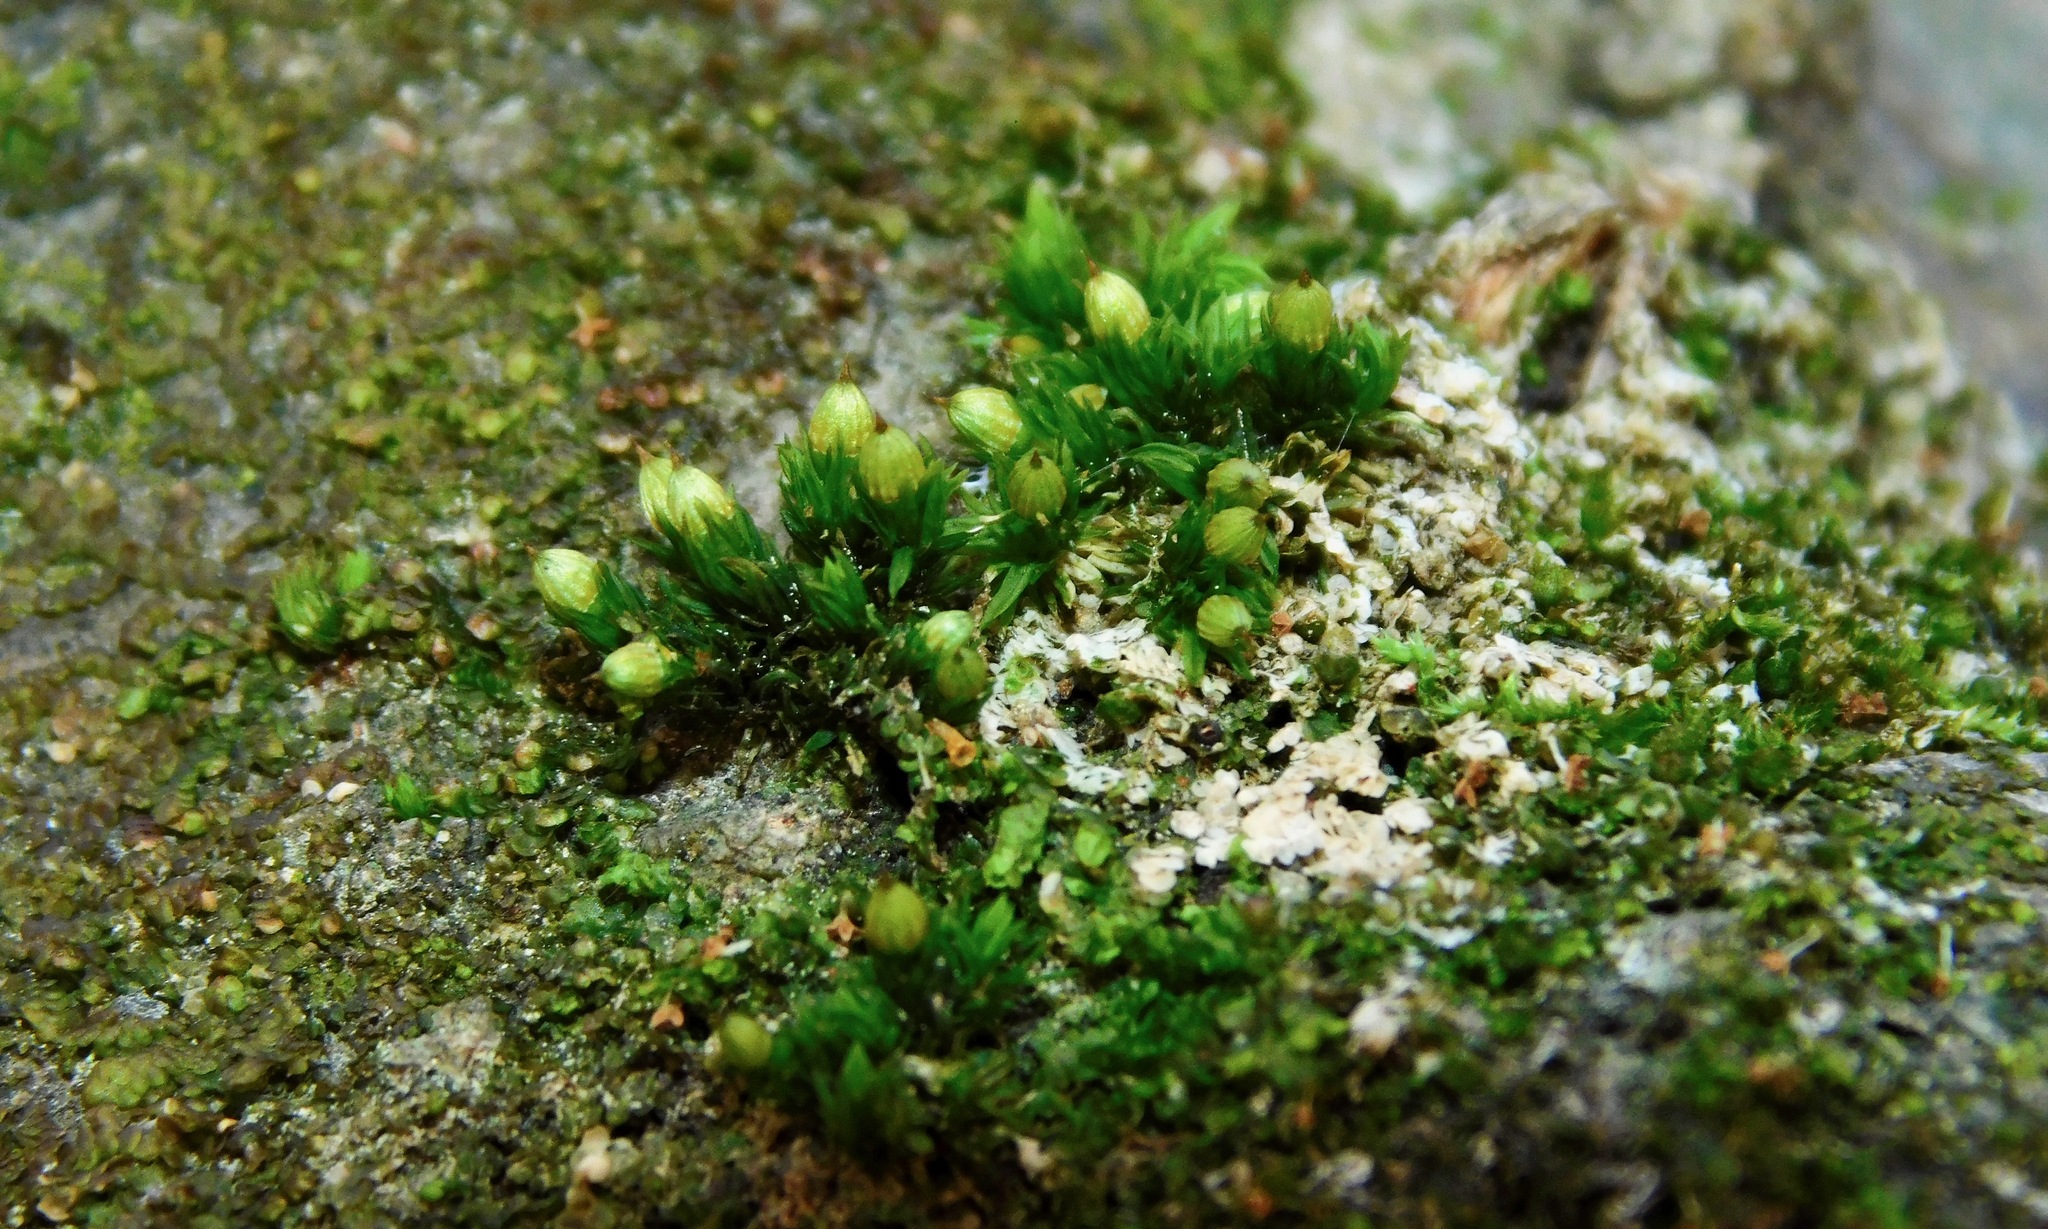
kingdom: Plantae
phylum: Bryophyta
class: Bryopsida
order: Orthotrichales
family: Orthotrichaceae
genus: Orthotrichum
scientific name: Orthotrichum
